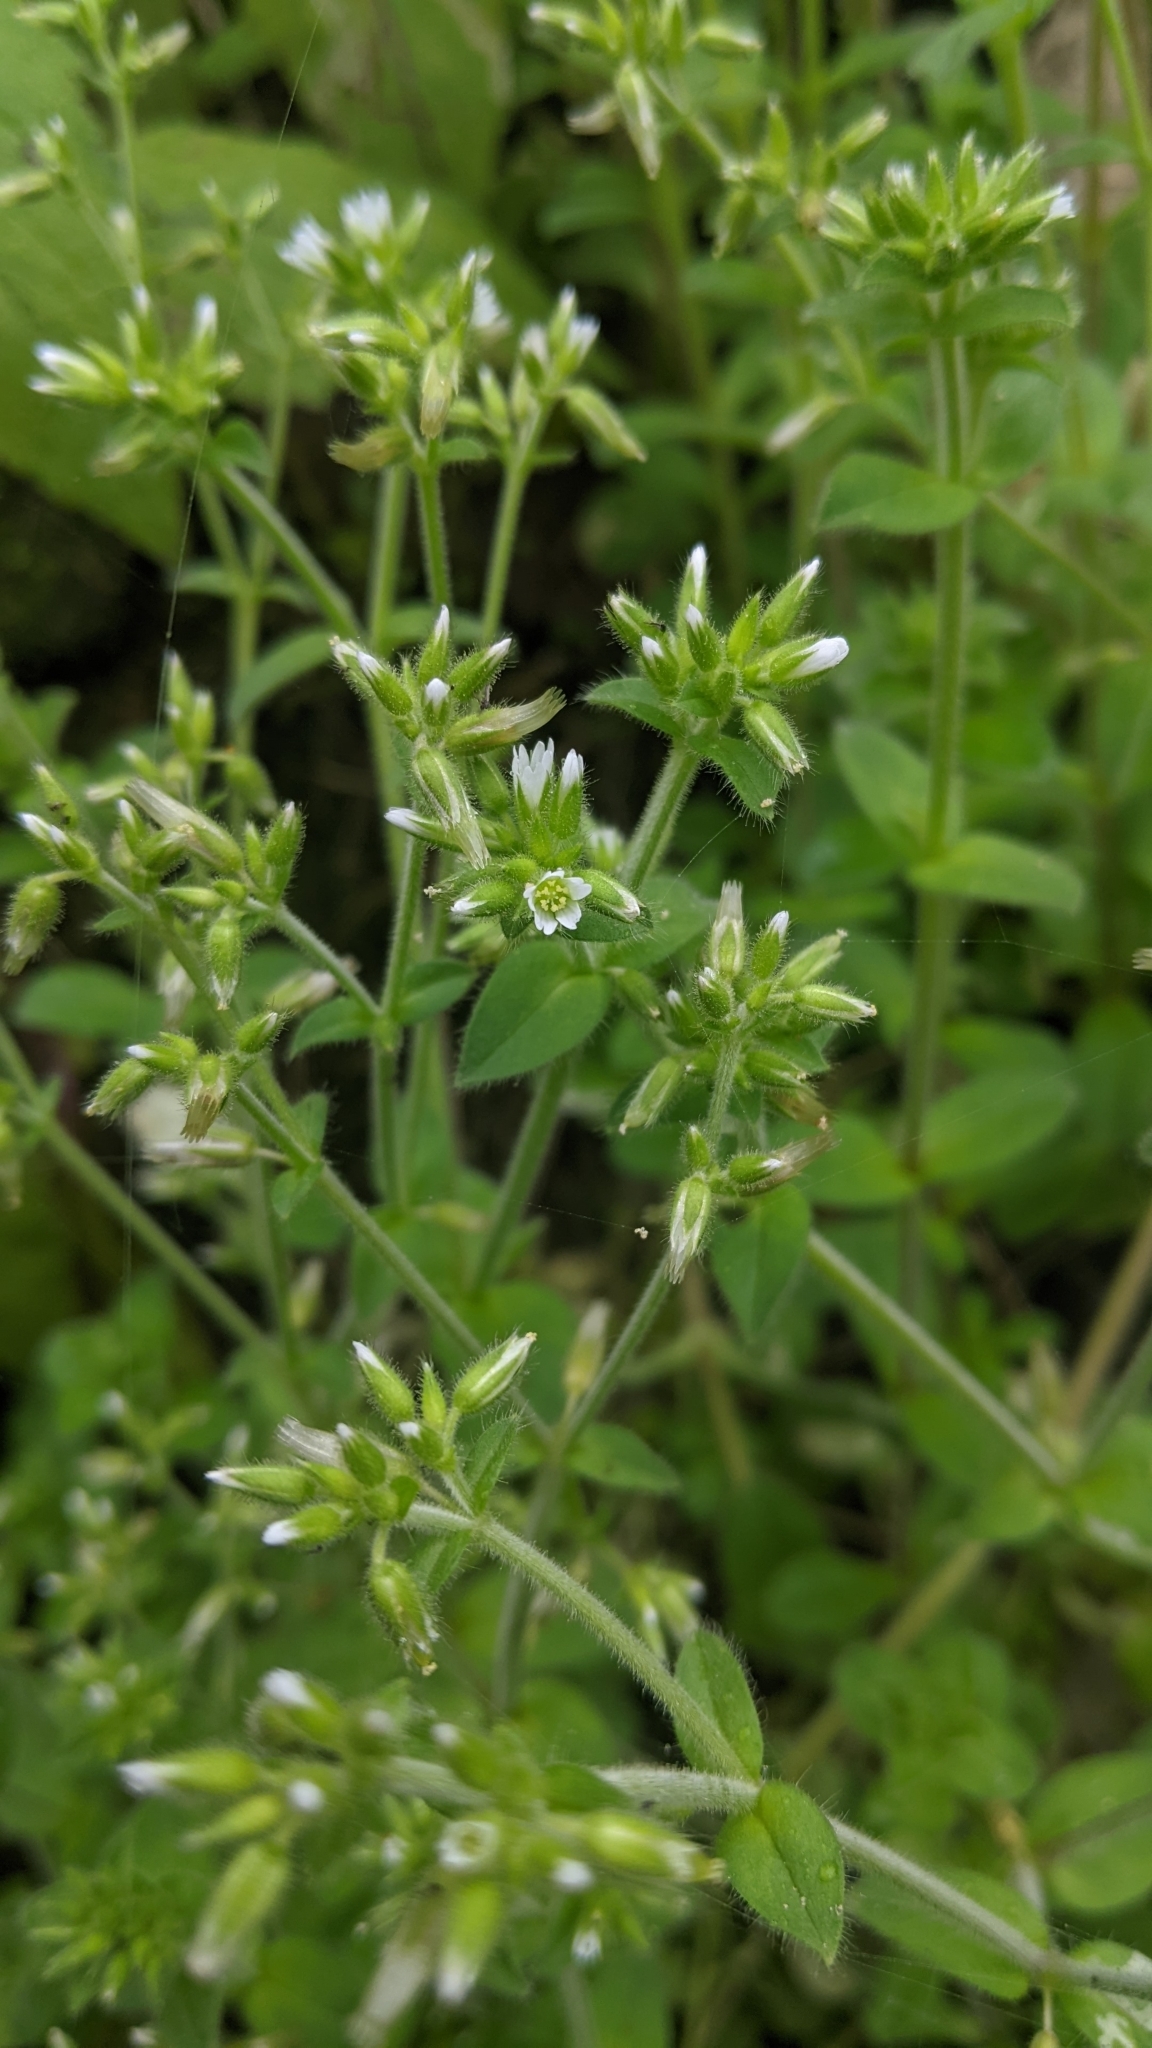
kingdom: Plantae
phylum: Tracheophyta
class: Magnoliopsida
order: Caryophyllales
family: Caryophyllaceae
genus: Cerastium
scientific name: Cerastium glomeratum
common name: Sticky chickweed
